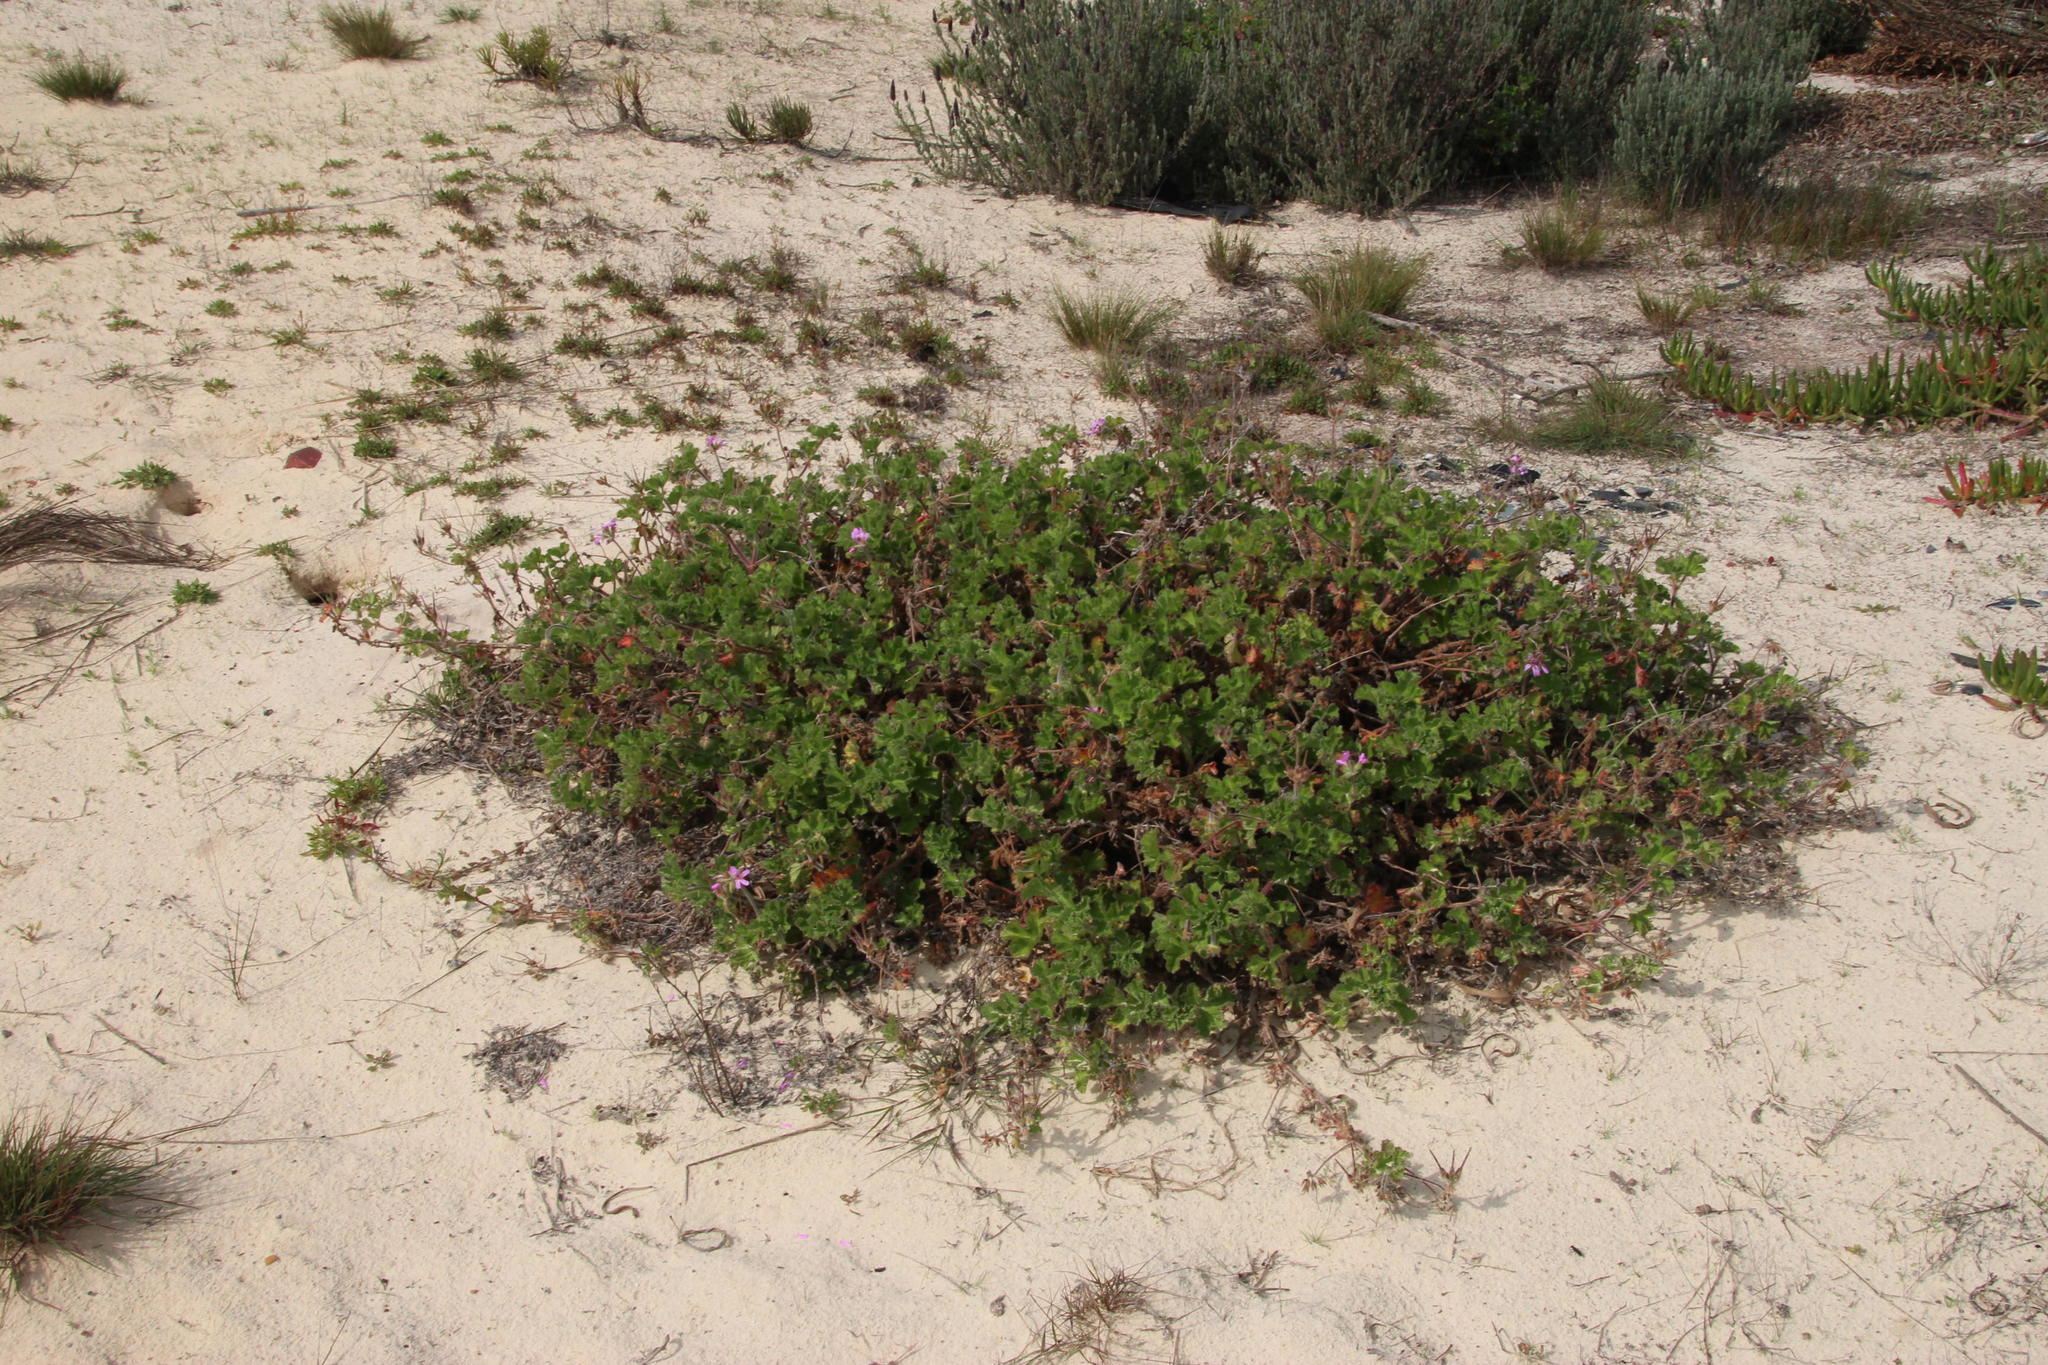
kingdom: Plantae
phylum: Tracheophyta
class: Magnoliopsida
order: Geraniales
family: Geraniaceae
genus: Pelargonium
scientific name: Pelargonium capitatum
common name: Rose scented geranium
